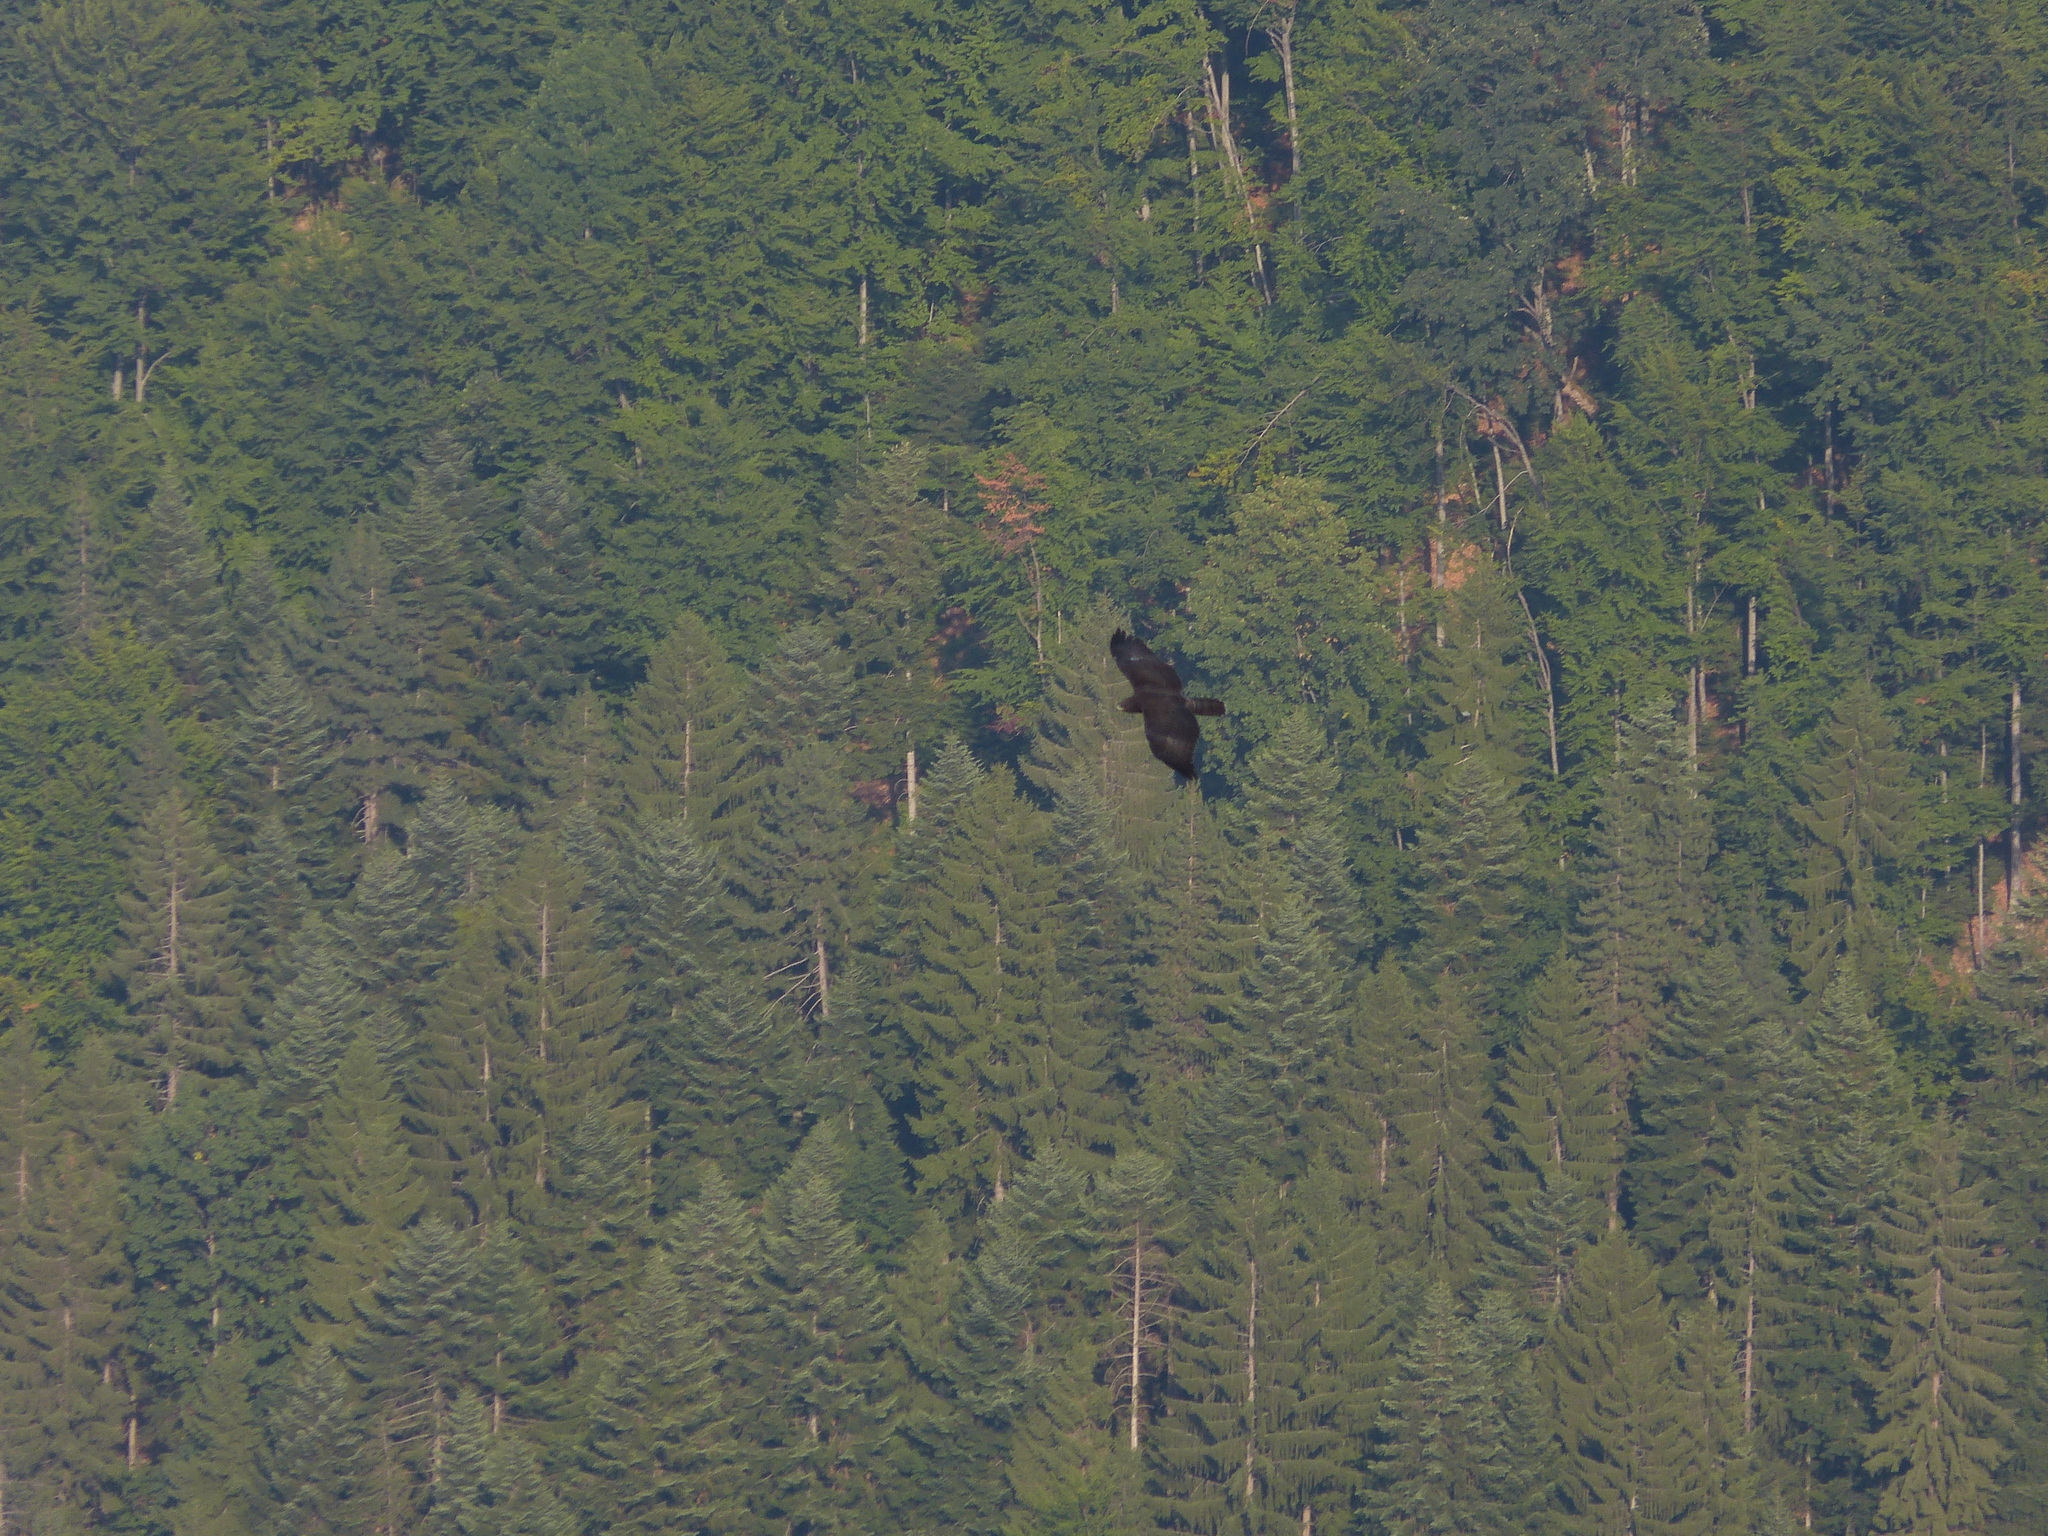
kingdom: Animalia
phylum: Chordata
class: Aves
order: Accipitriformes
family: Accipitridae
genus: Buteo
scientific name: Buteo buteo
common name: Common buzzard
